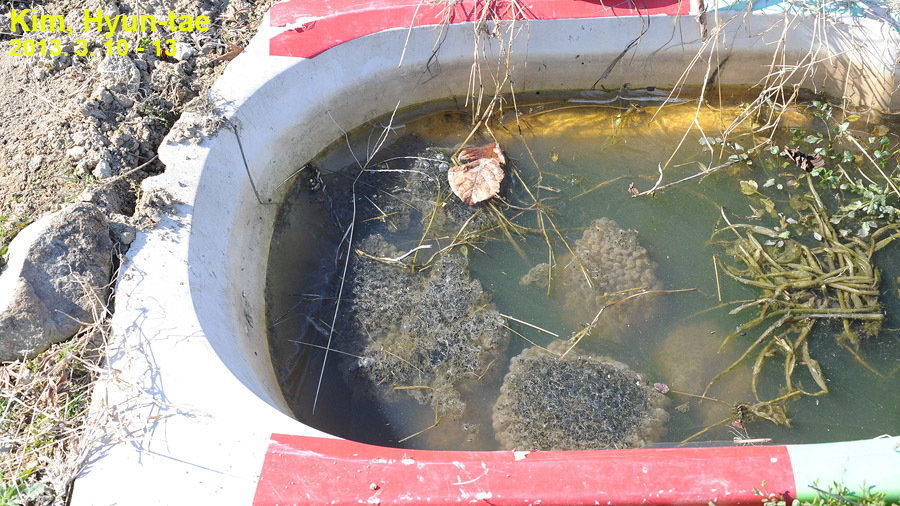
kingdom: Animalia
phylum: Chordata
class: Amphibia
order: Anura
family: Ranidae
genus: Rana
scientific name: Rana uenoi
